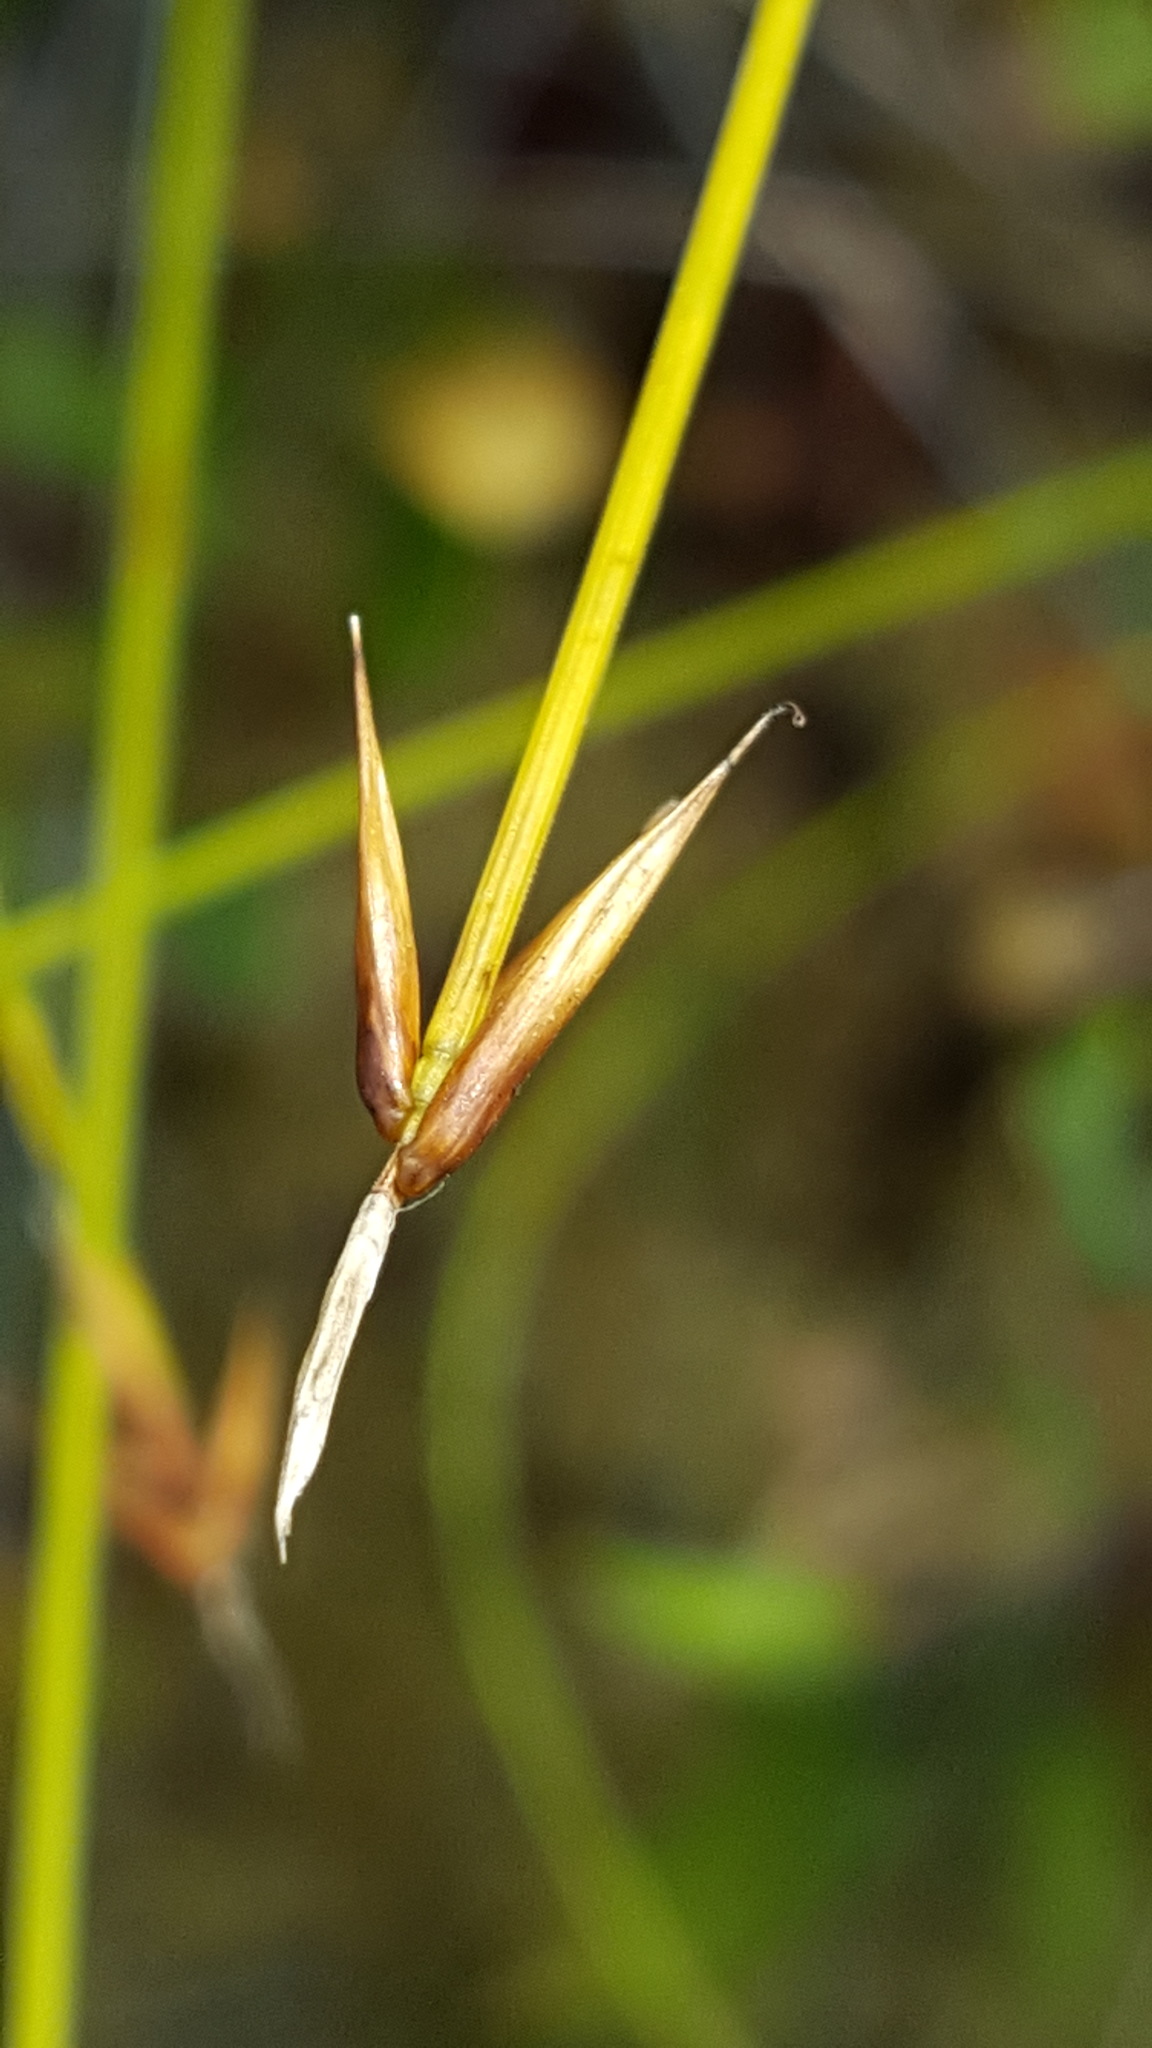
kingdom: Plantae
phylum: Tracheophyta
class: Liliopsida
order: Poales
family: Cyperaceae
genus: Carex
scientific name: Carex pauciflora
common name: Few-flowered sedge
